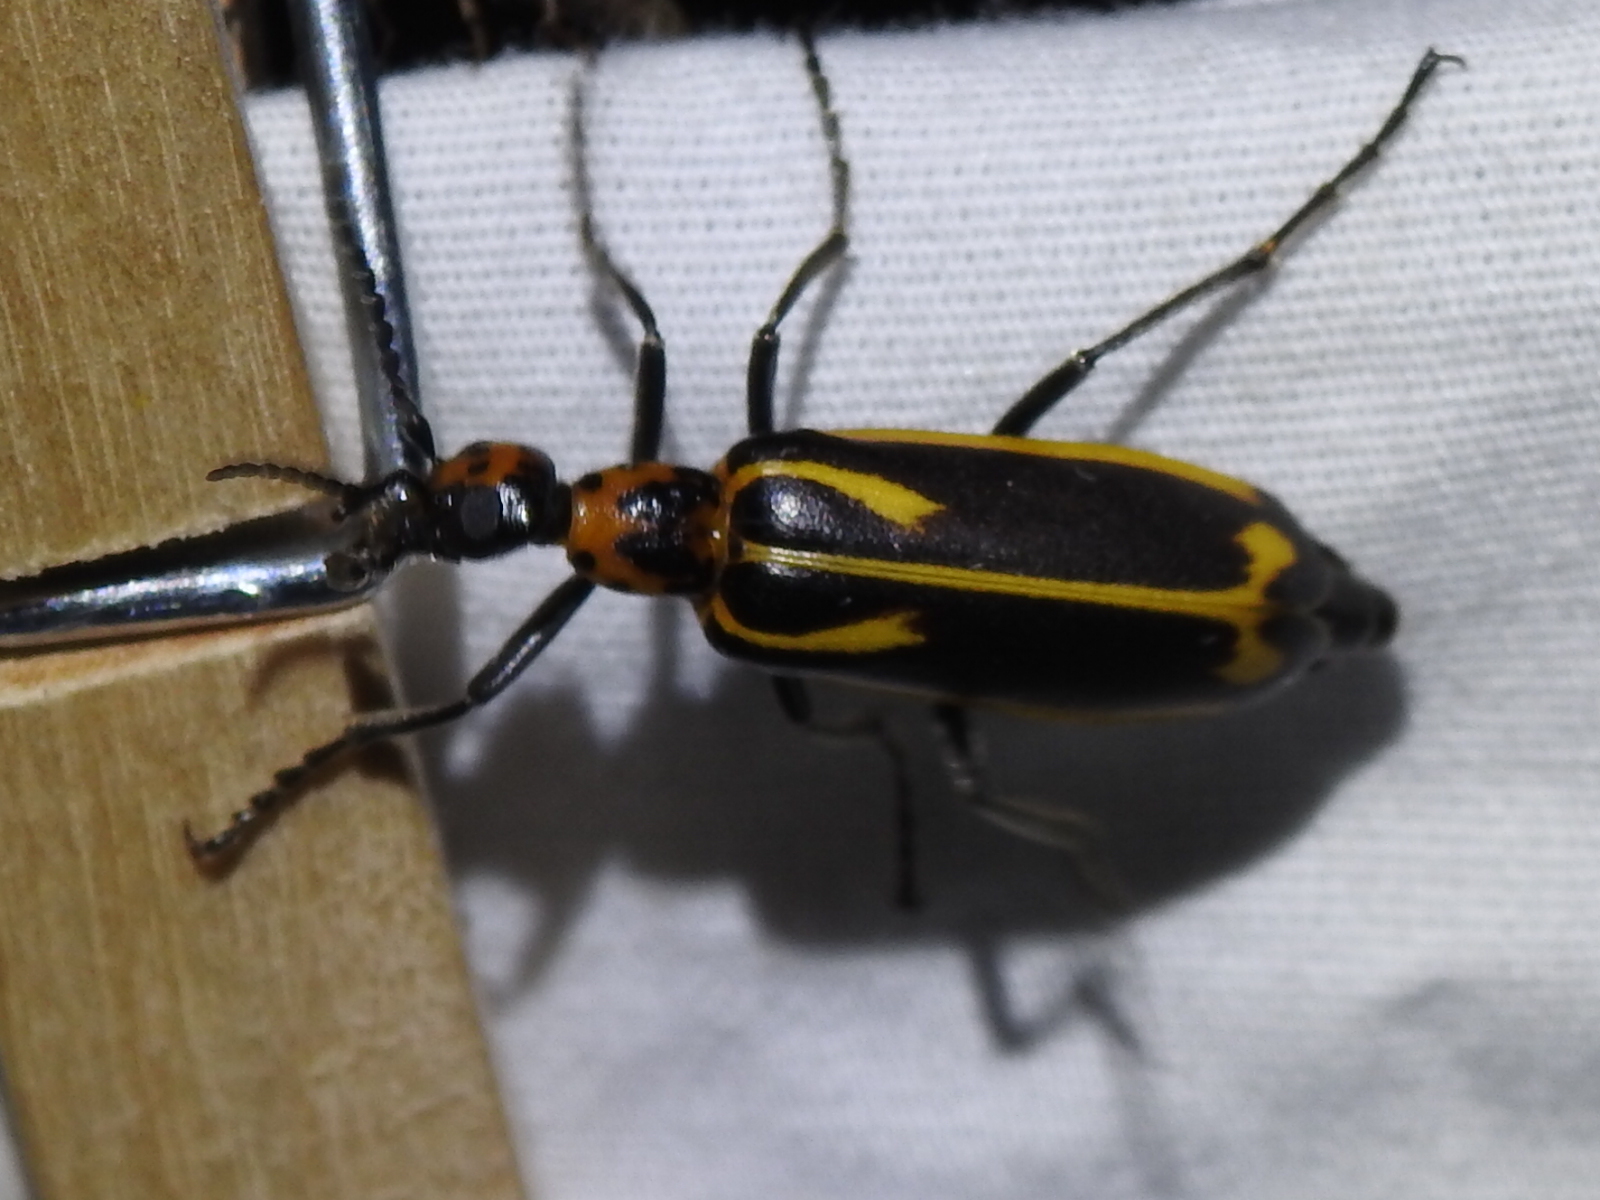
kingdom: Animalia
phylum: Arthropoda
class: Insecta
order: Coleoptera
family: Meloidae
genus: Pyrota
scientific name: Pyrota insulata
